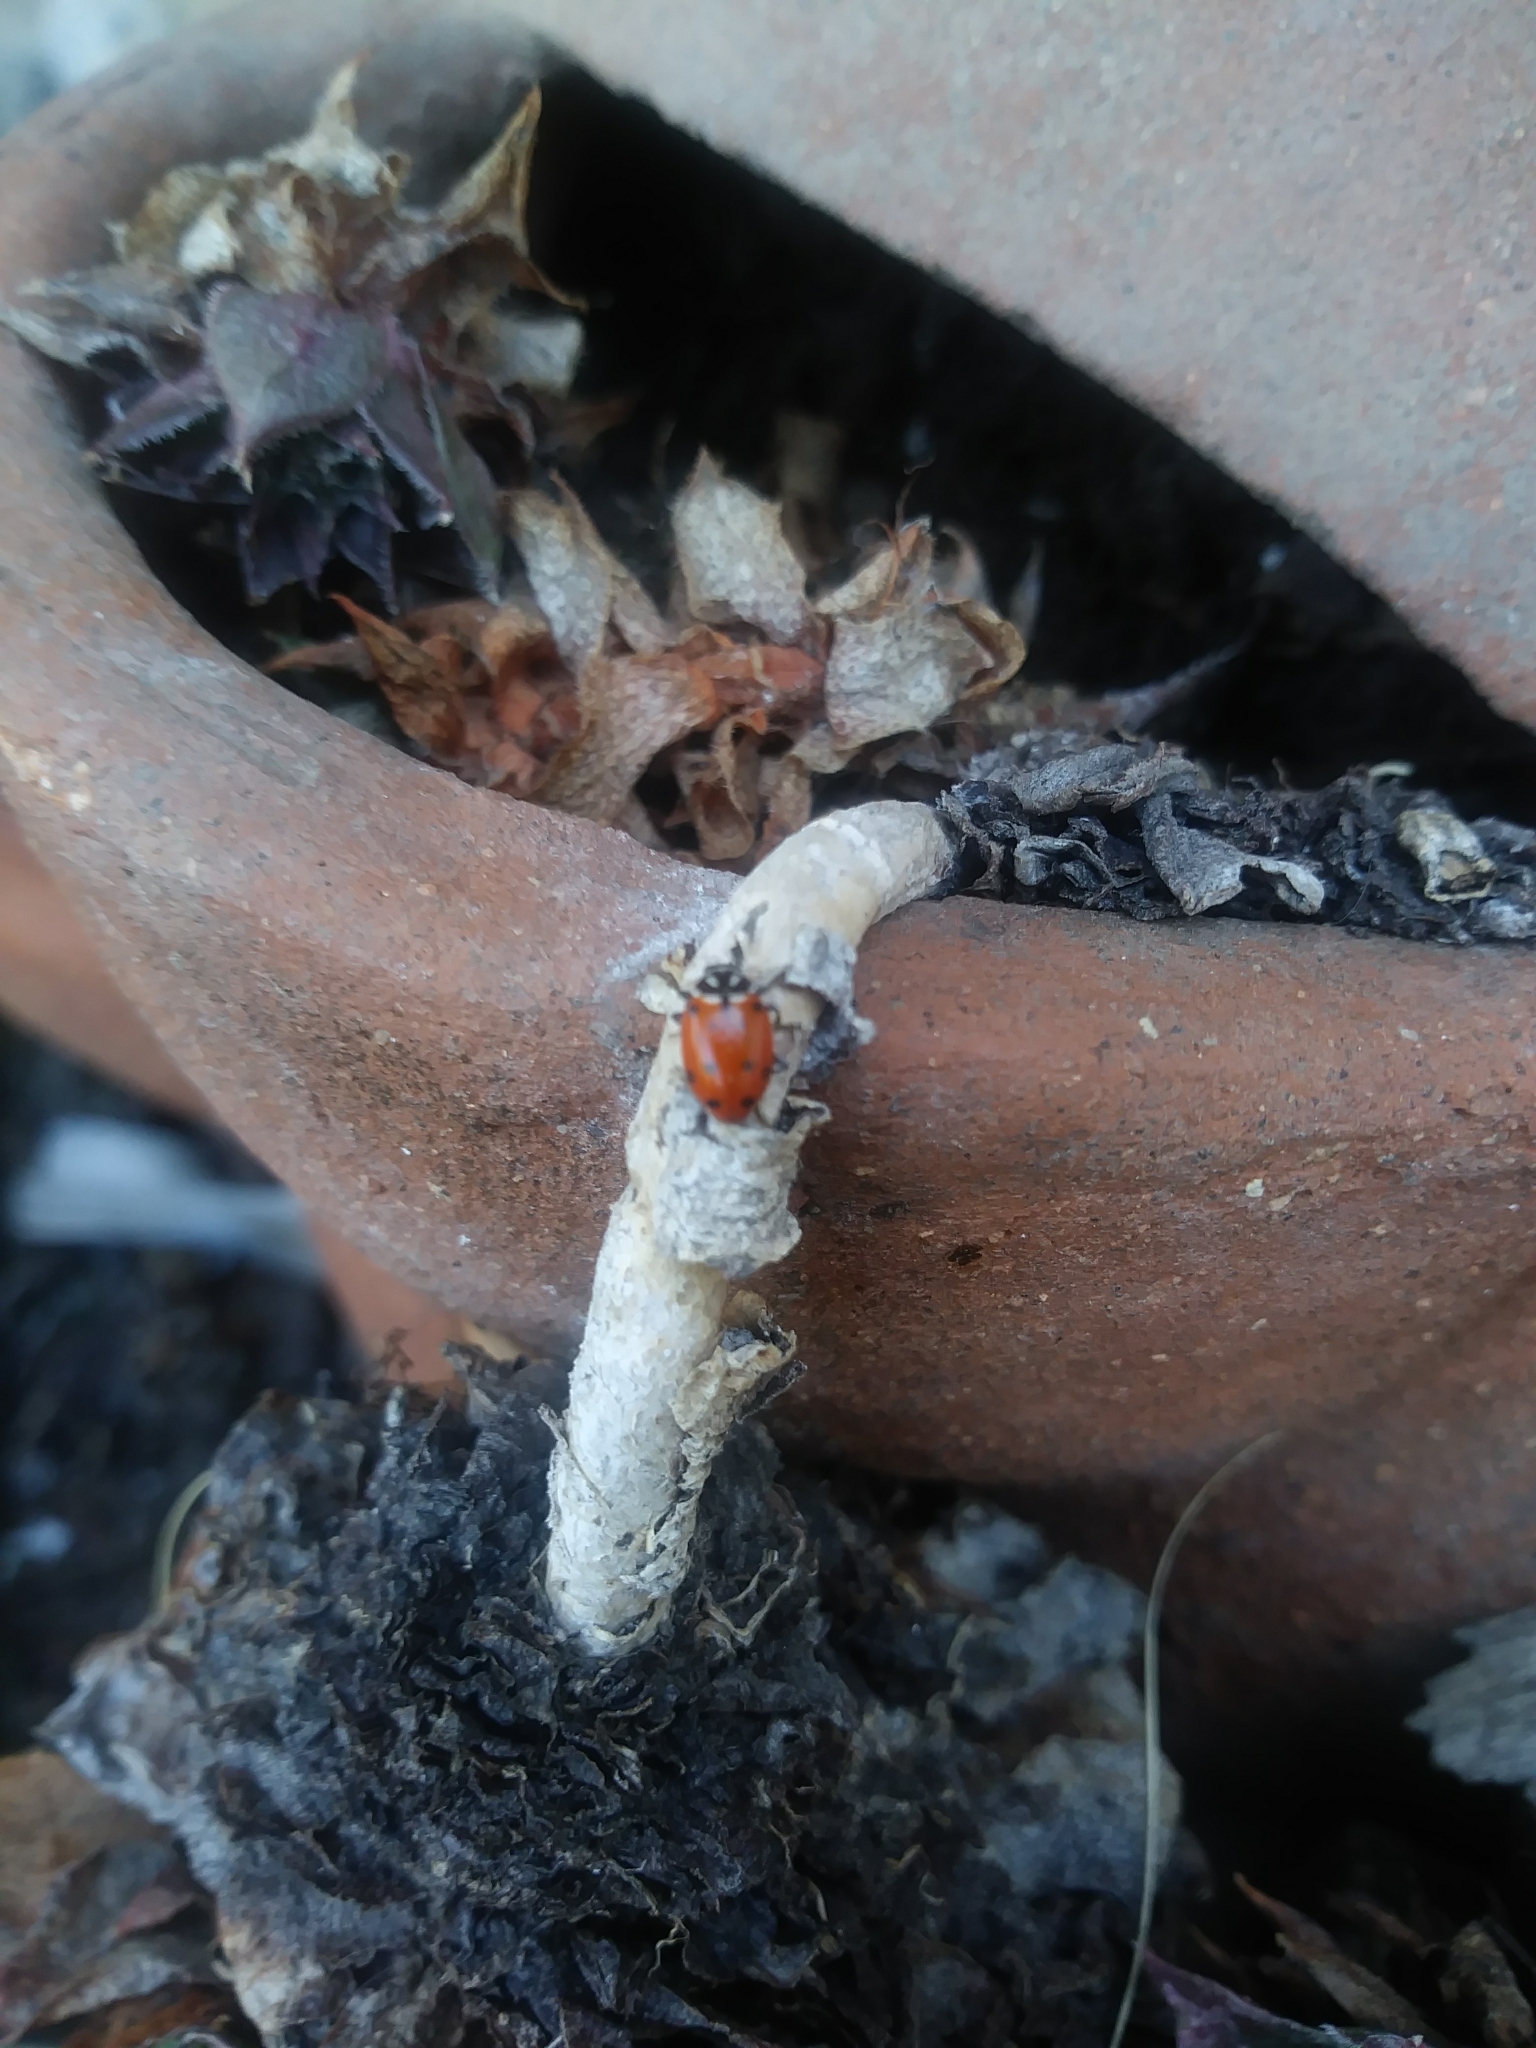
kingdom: Animalia
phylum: Arthropoda
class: Insecta
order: Coleoptera
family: Coccinellidae
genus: Hippodamia
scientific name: Hippodamia convergens
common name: Convergent lady beetle
